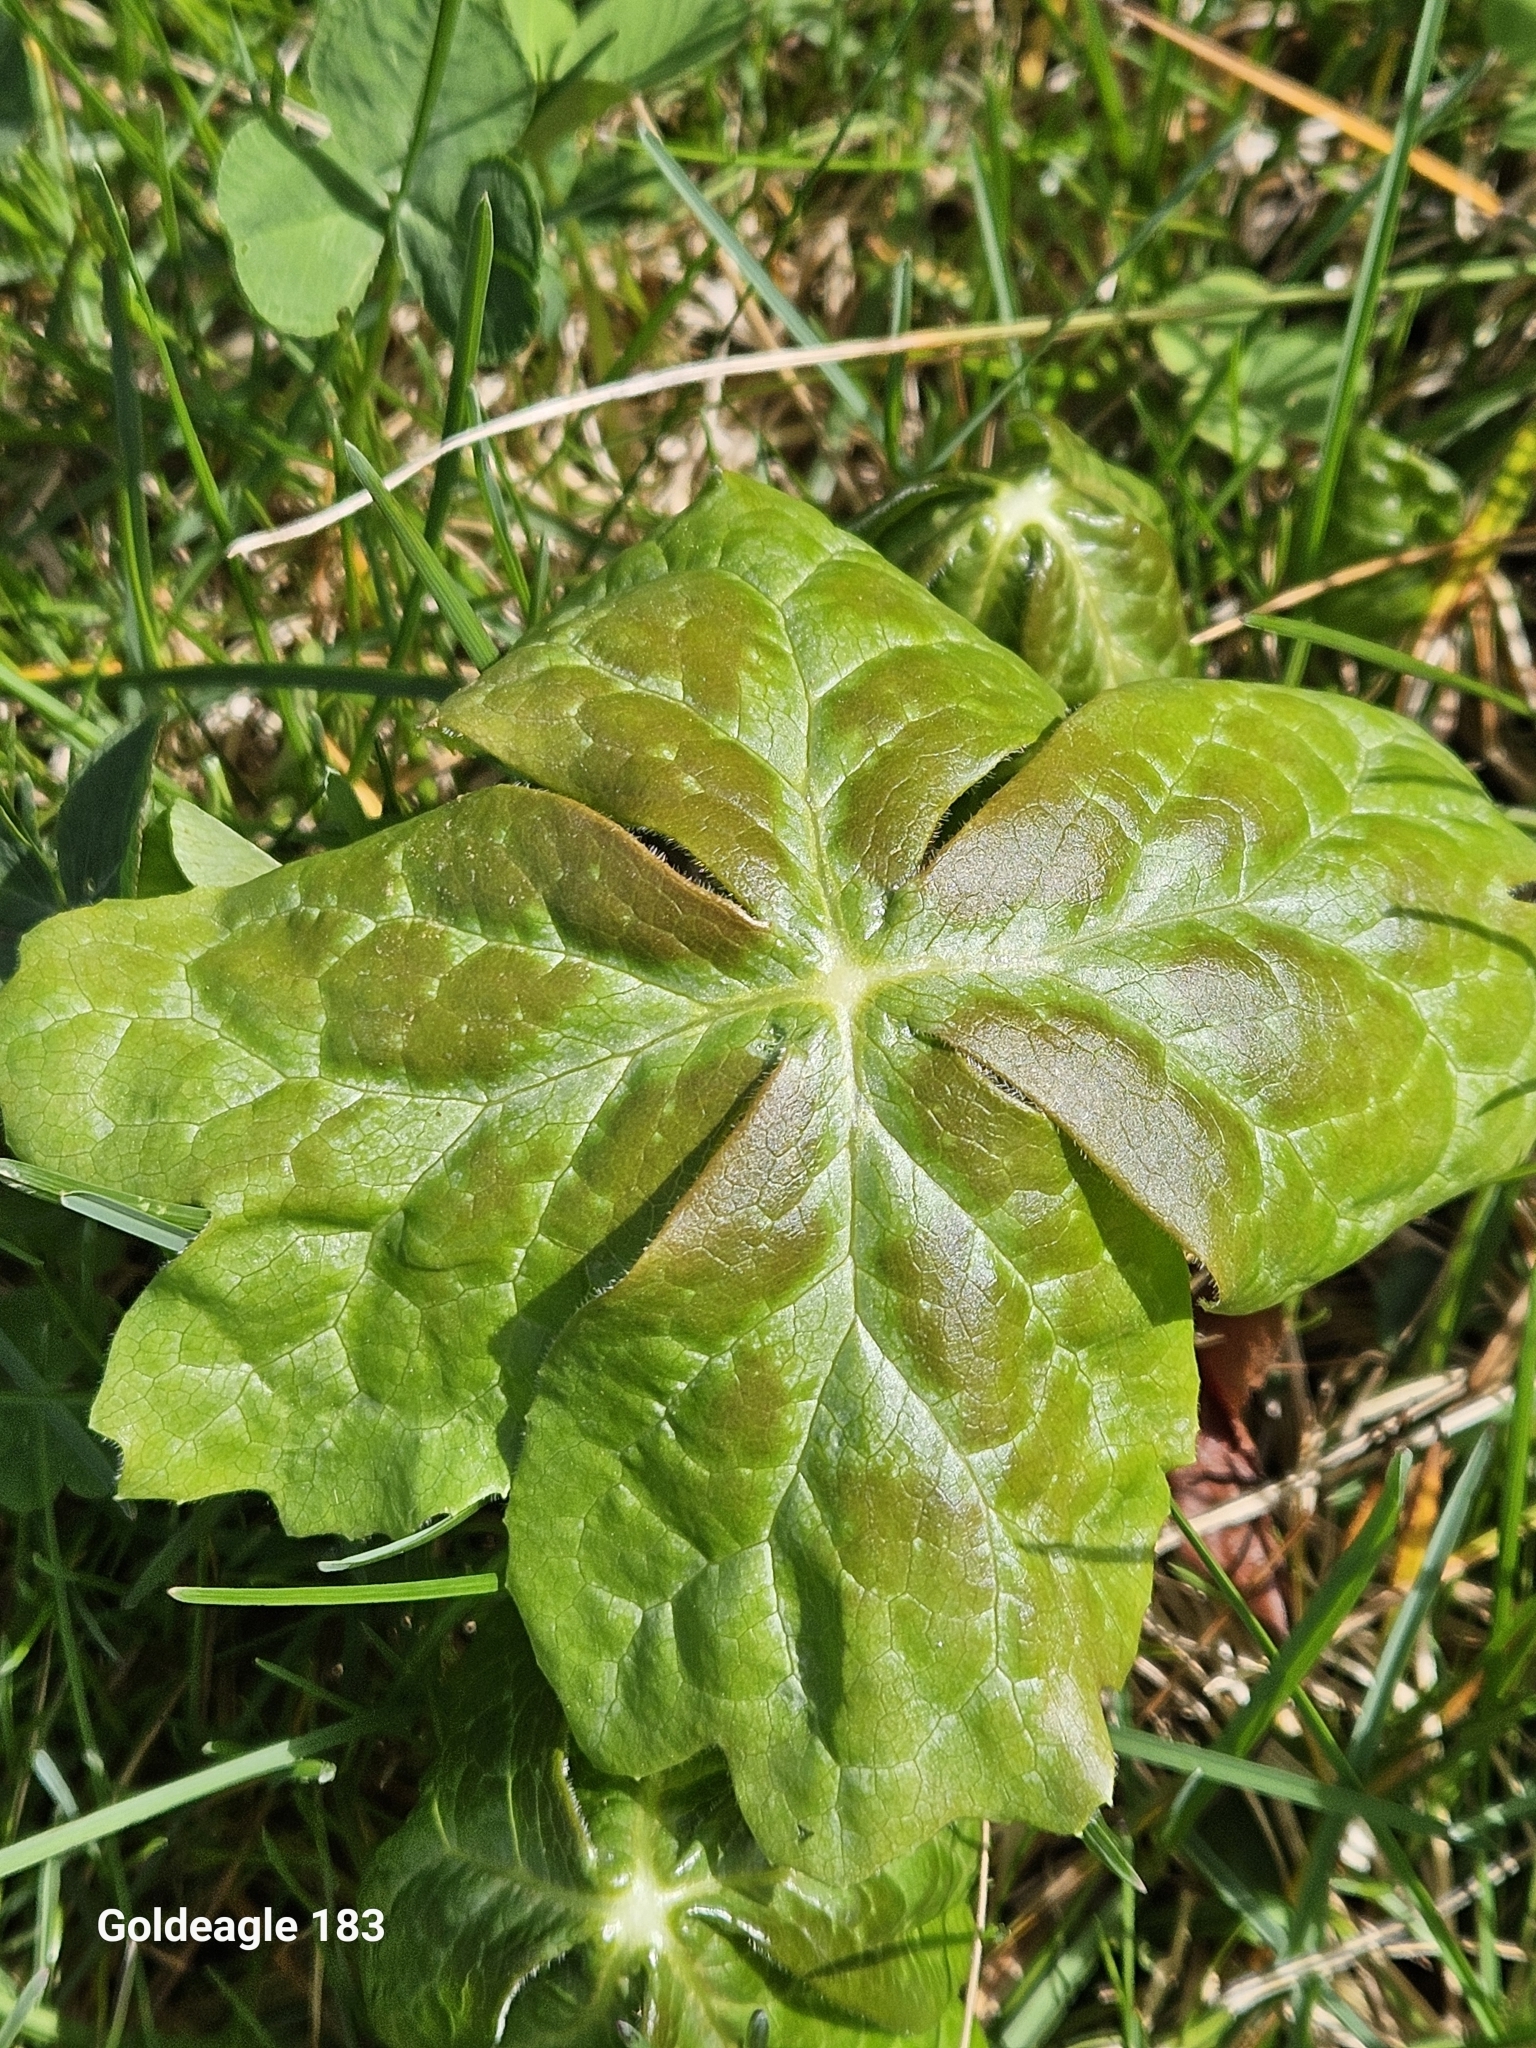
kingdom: Plantae
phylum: Tracheophyta
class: Magnoliopsida
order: Ranunculales
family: Berberidaceae
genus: Podophyllum
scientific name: Podophyllum peltatum
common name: Wild mandrake
